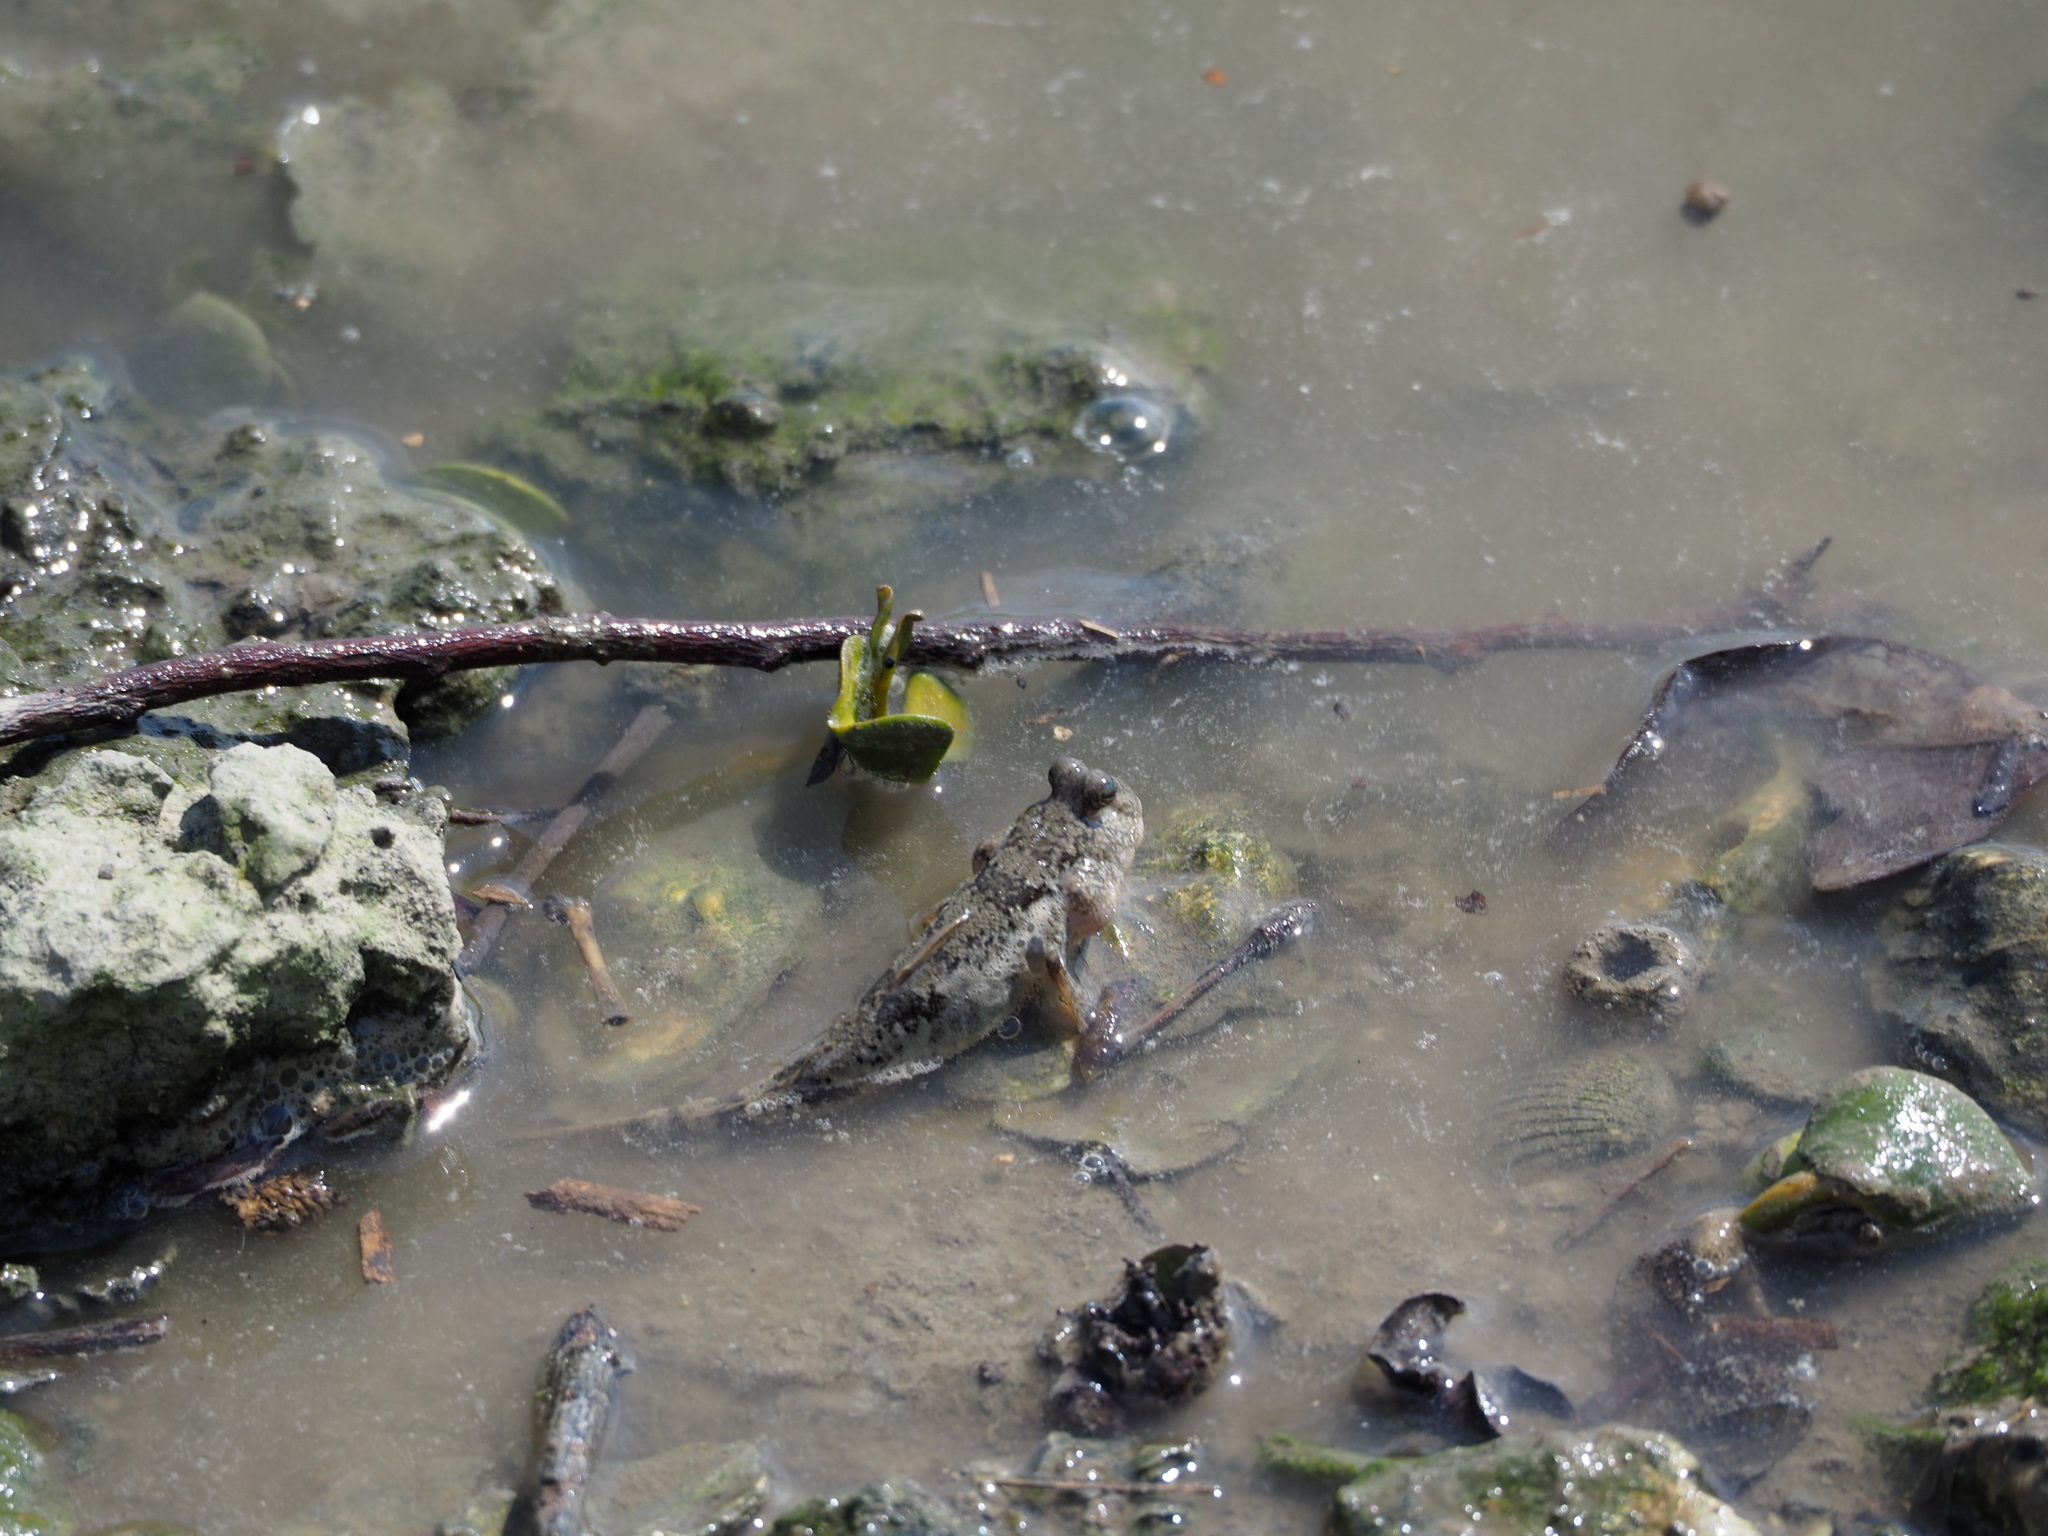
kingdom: Animalia
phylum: Chordata
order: Perciformes
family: Gobiidae
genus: Periophthalmus
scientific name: Periophthalmus modestus
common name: Black goby
